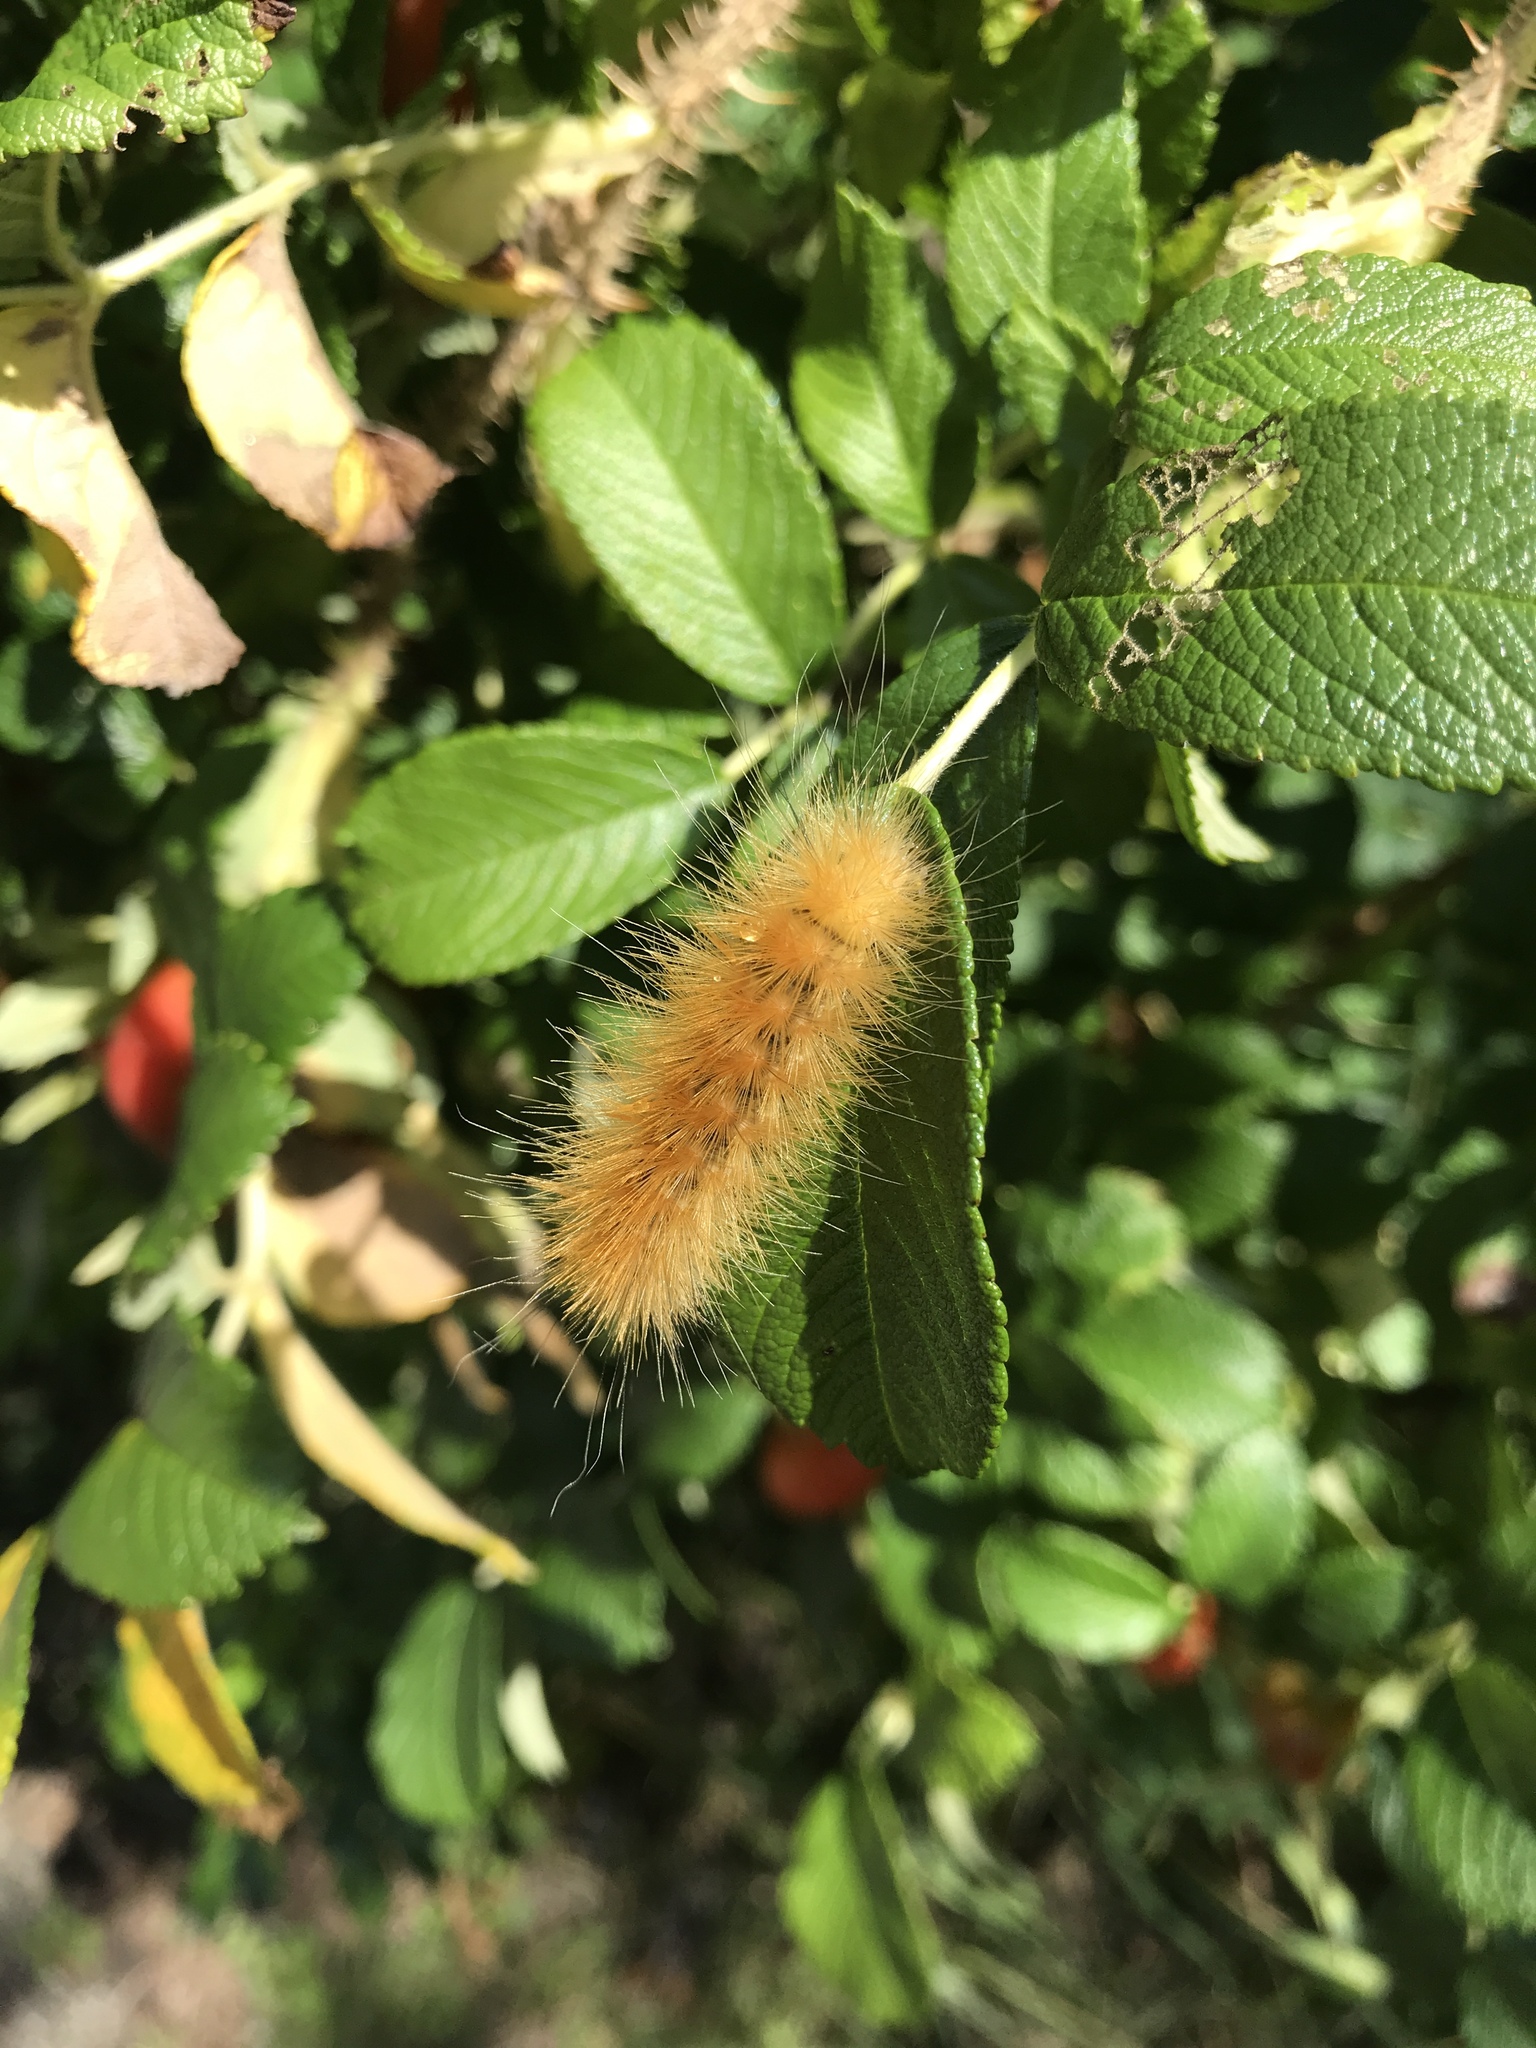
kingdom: Animalia
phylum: Arthropoda
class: Insecta
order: Lepidoptera
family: Erebidae
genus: Spilosoma
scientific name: Spilosoma virginica
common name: Virginia tiger moth
